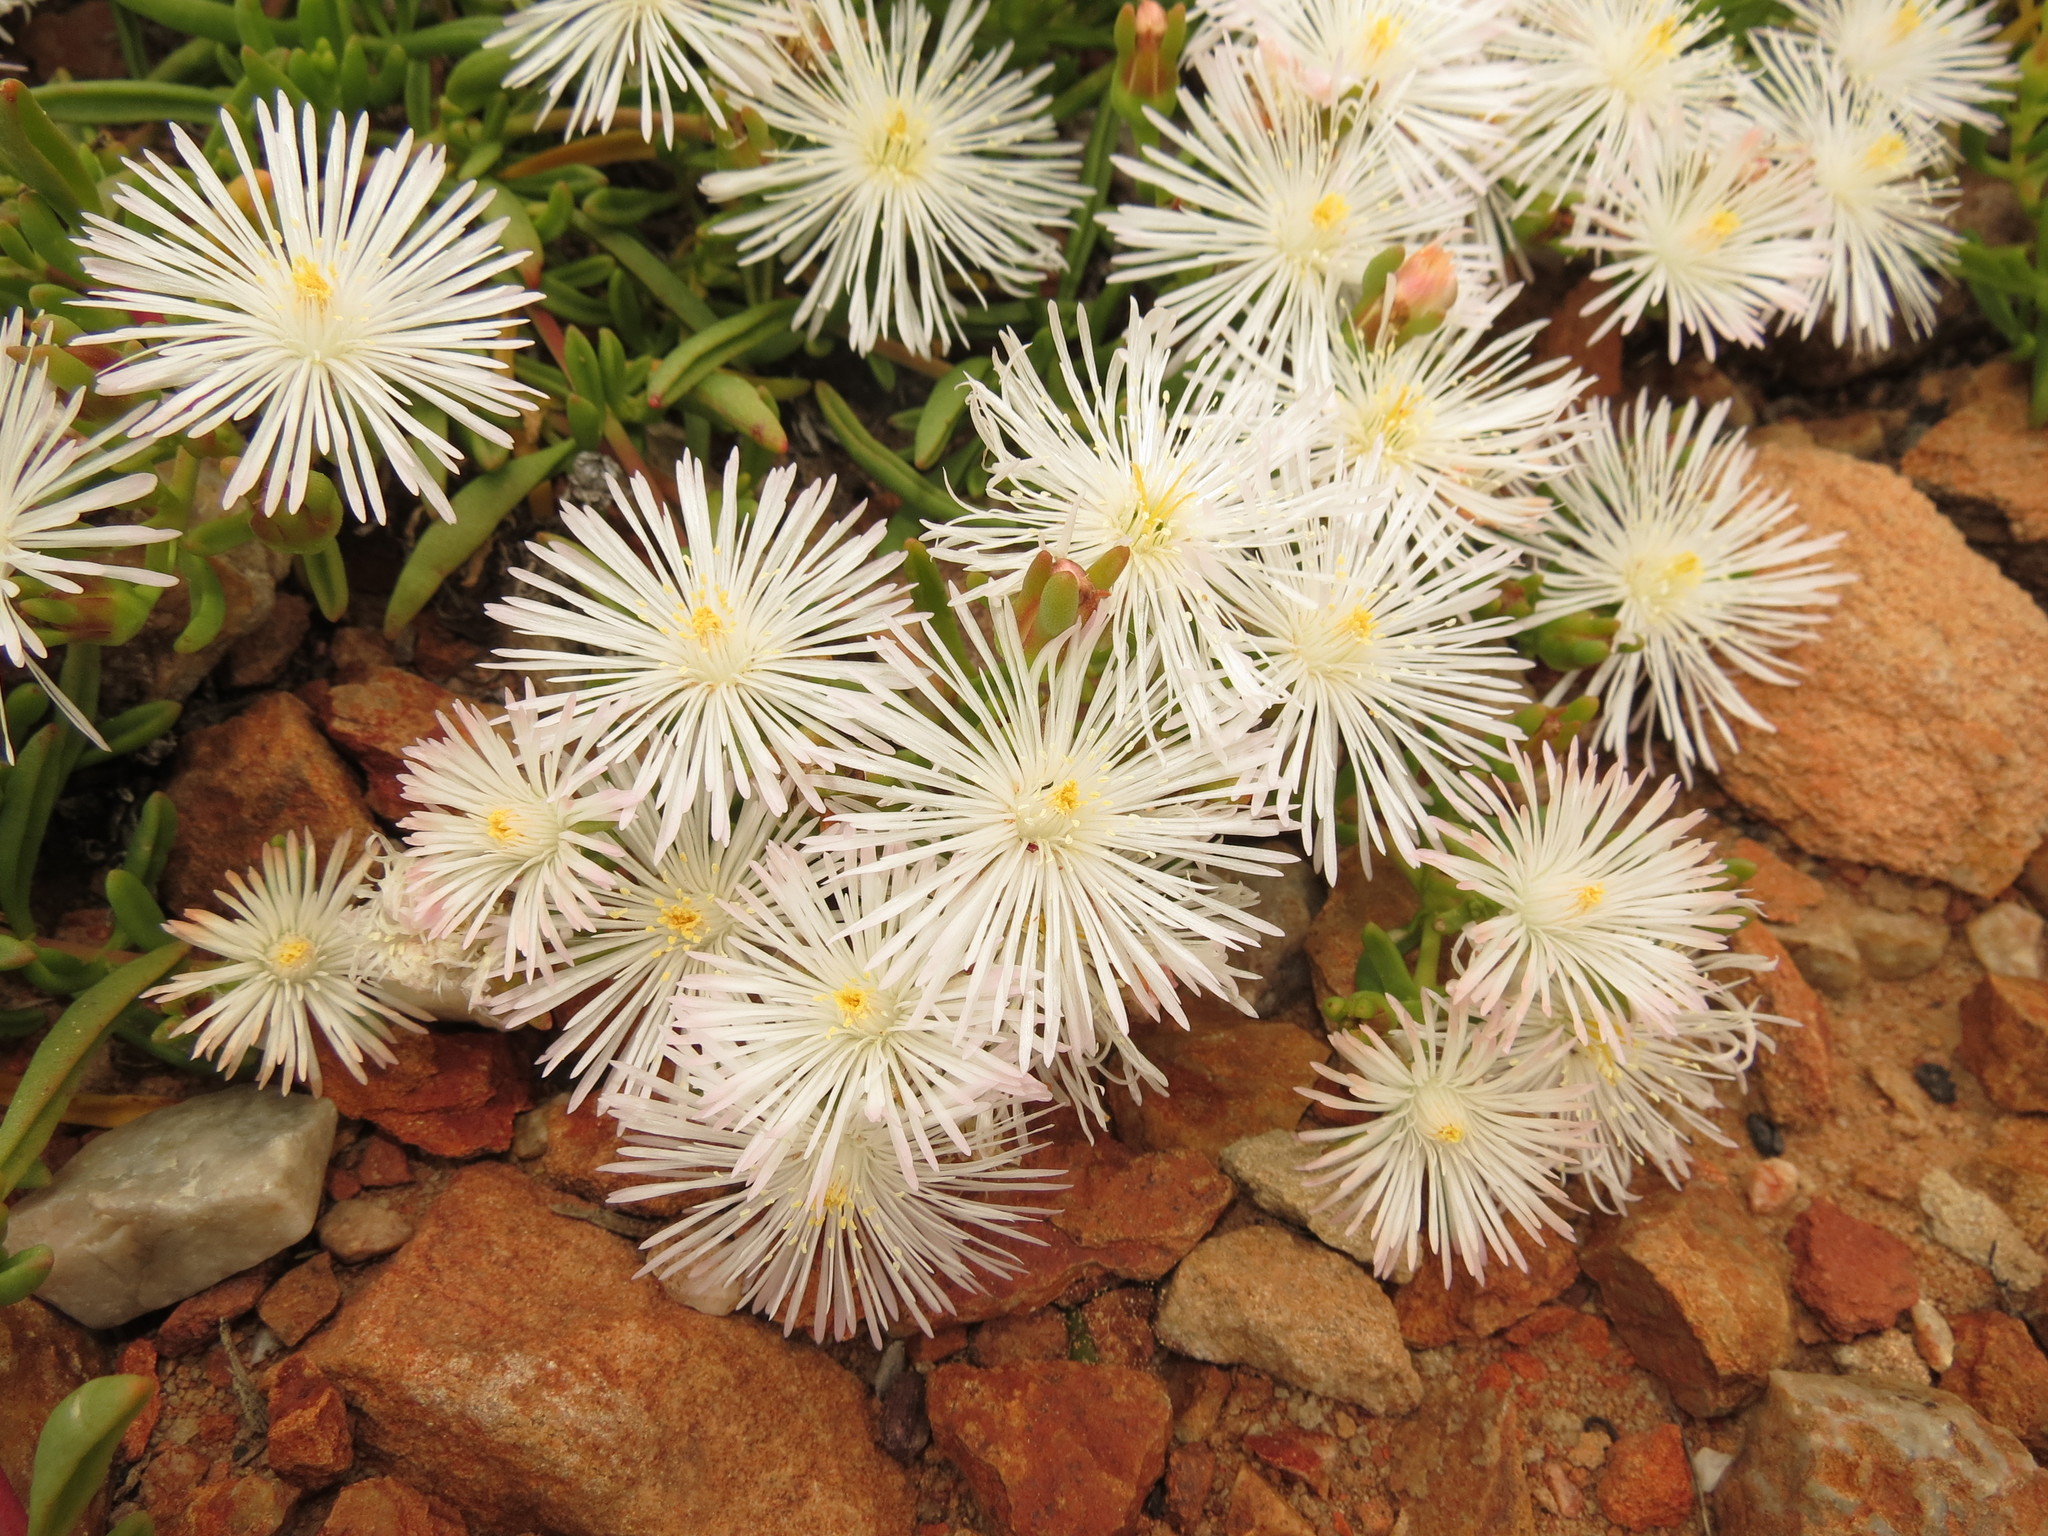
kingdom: Plantae
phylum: Tracheophyta
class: Magnoliopsida
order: Caryophyllales
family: Aizoaceae
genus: Mesembryanthemum
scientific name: Mesembryanthemum longistylum
